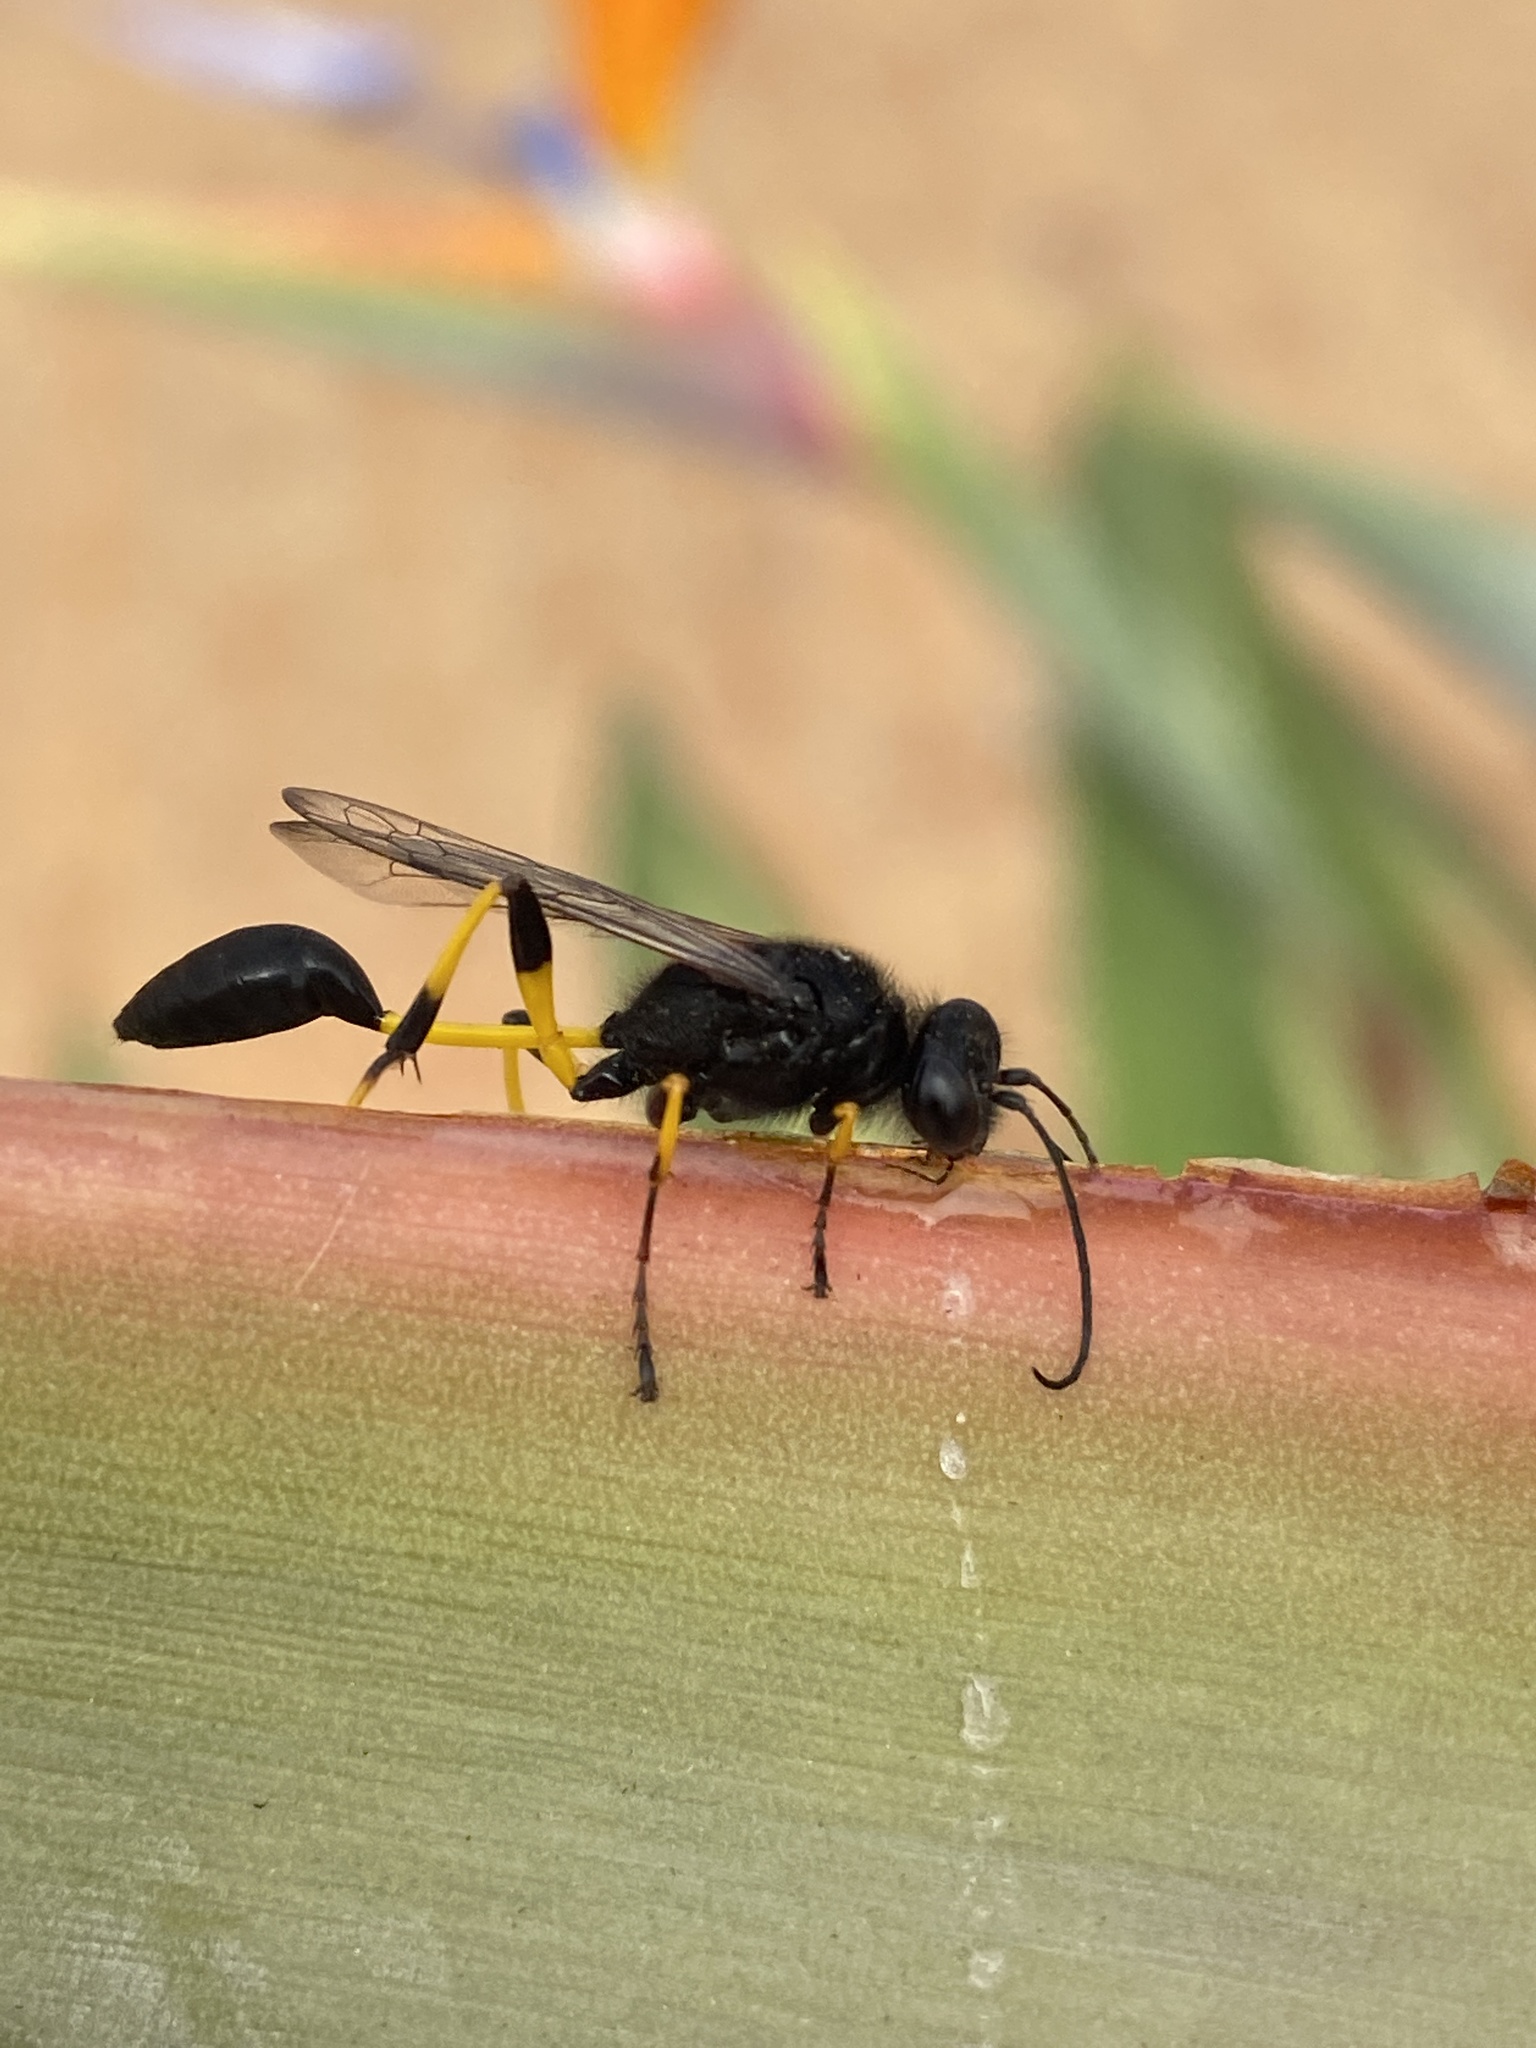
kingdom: Animalia
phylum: Arthropoda
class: Insecta
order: Hymenoptera
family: Sphecidae
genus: Sceliphron
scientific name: Sceliphron spirifex
